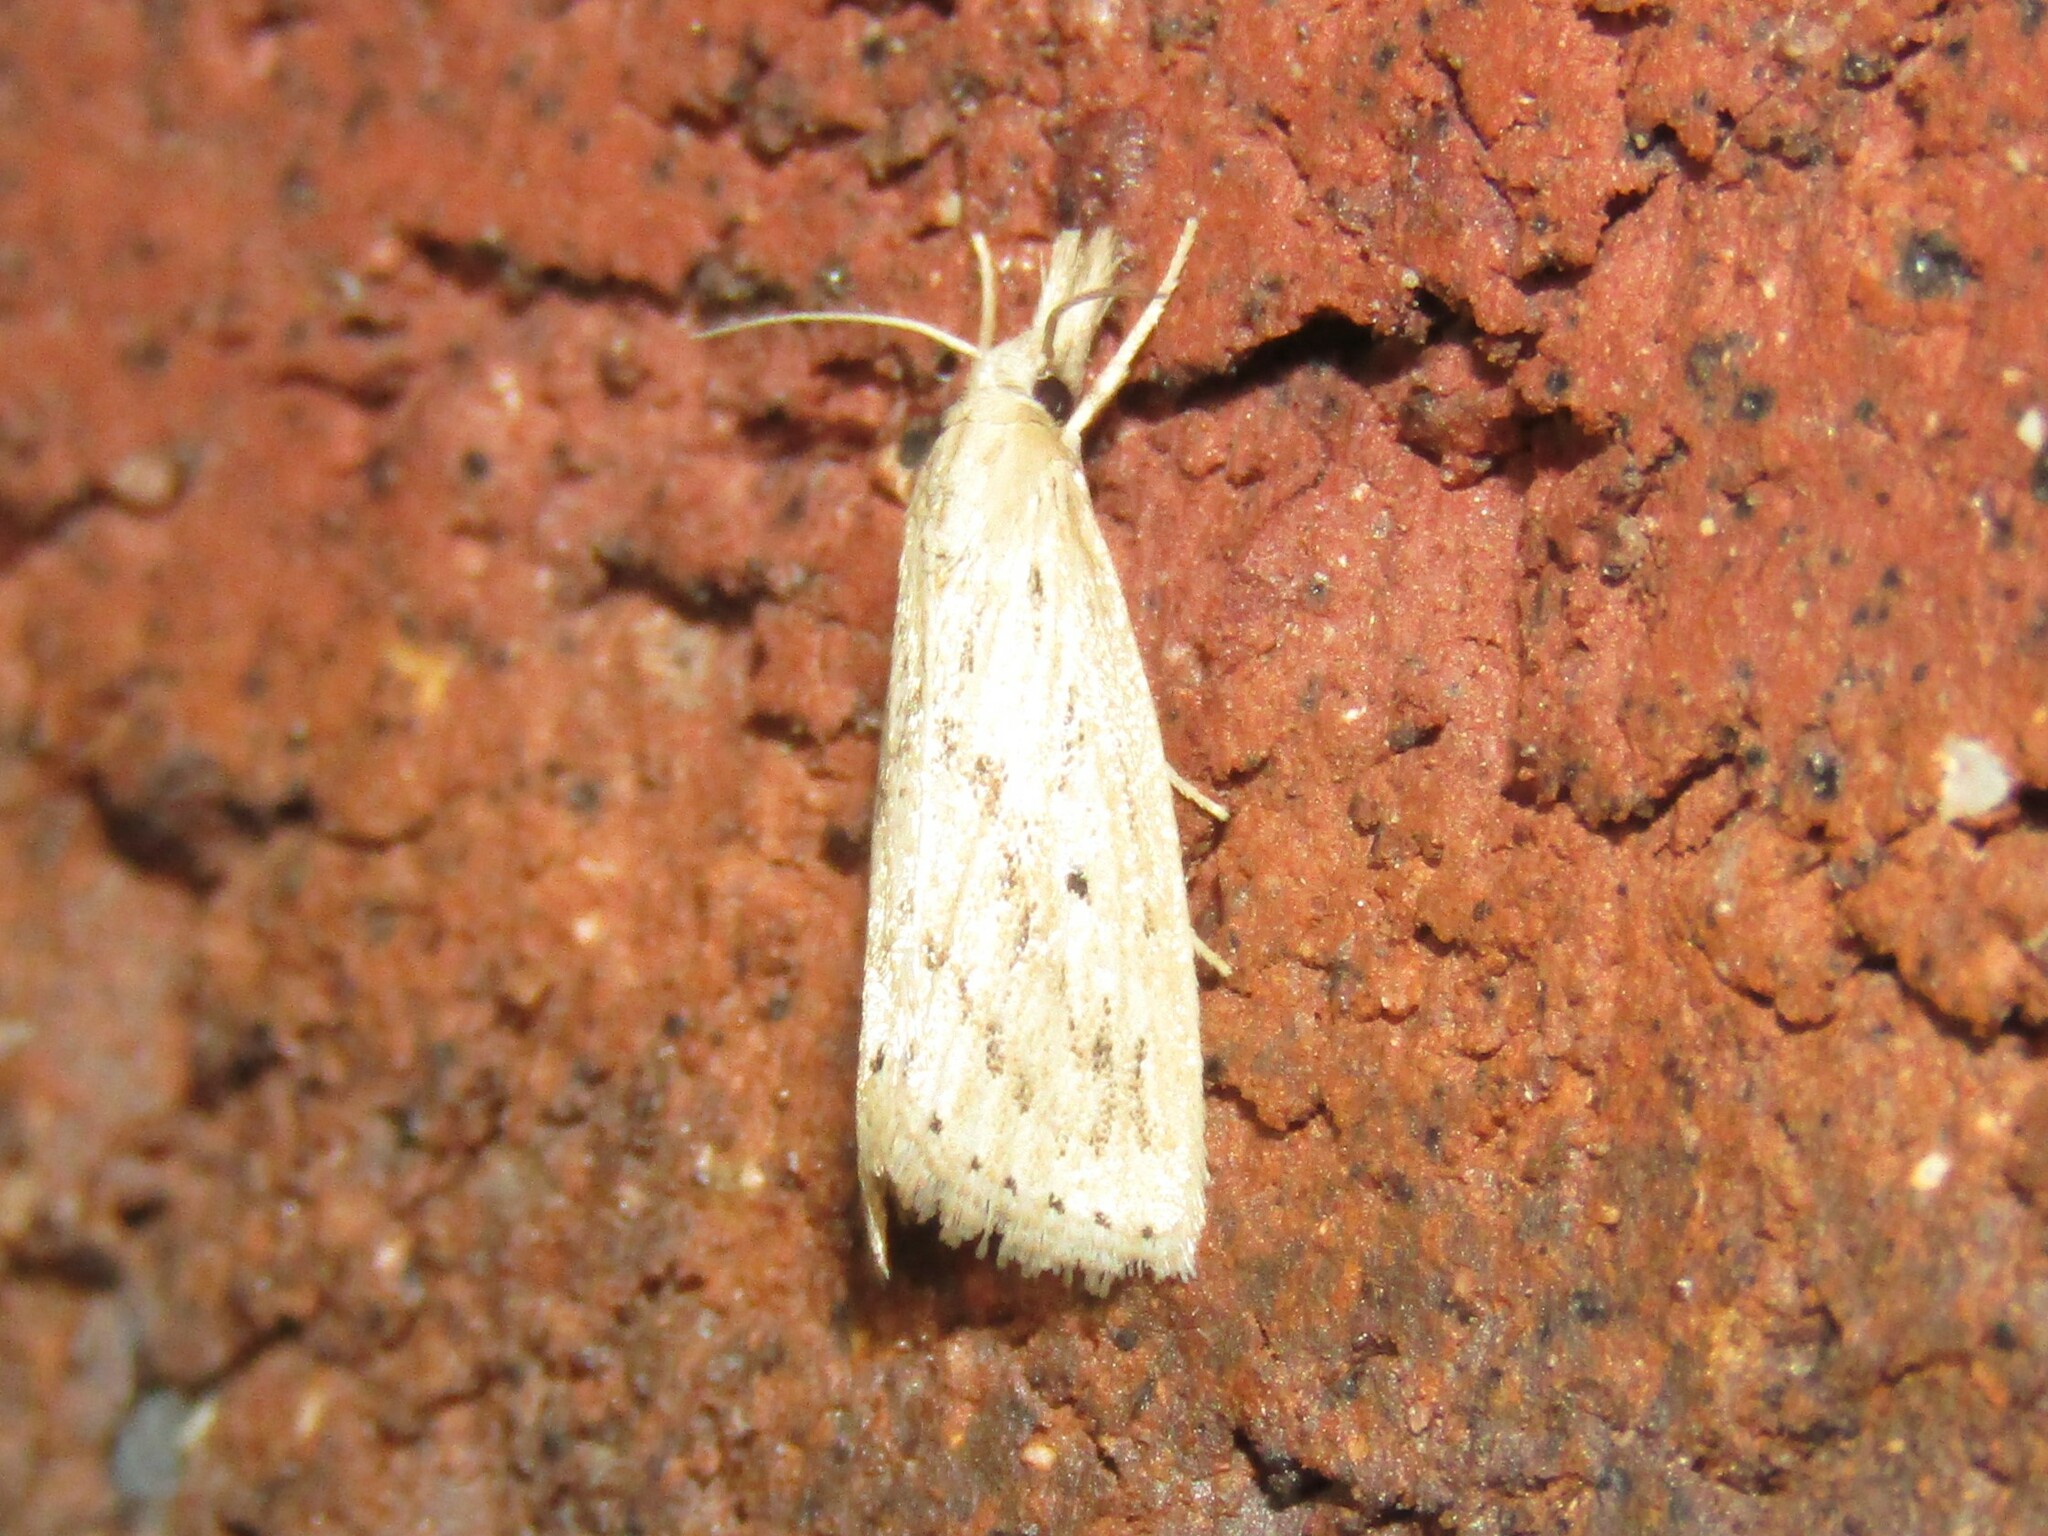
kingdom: Animalia
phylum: Arthropoda
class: Insecta
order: Lepidoptera
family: Crambidae
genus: Diatraea
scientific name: Diatraea lisetta
